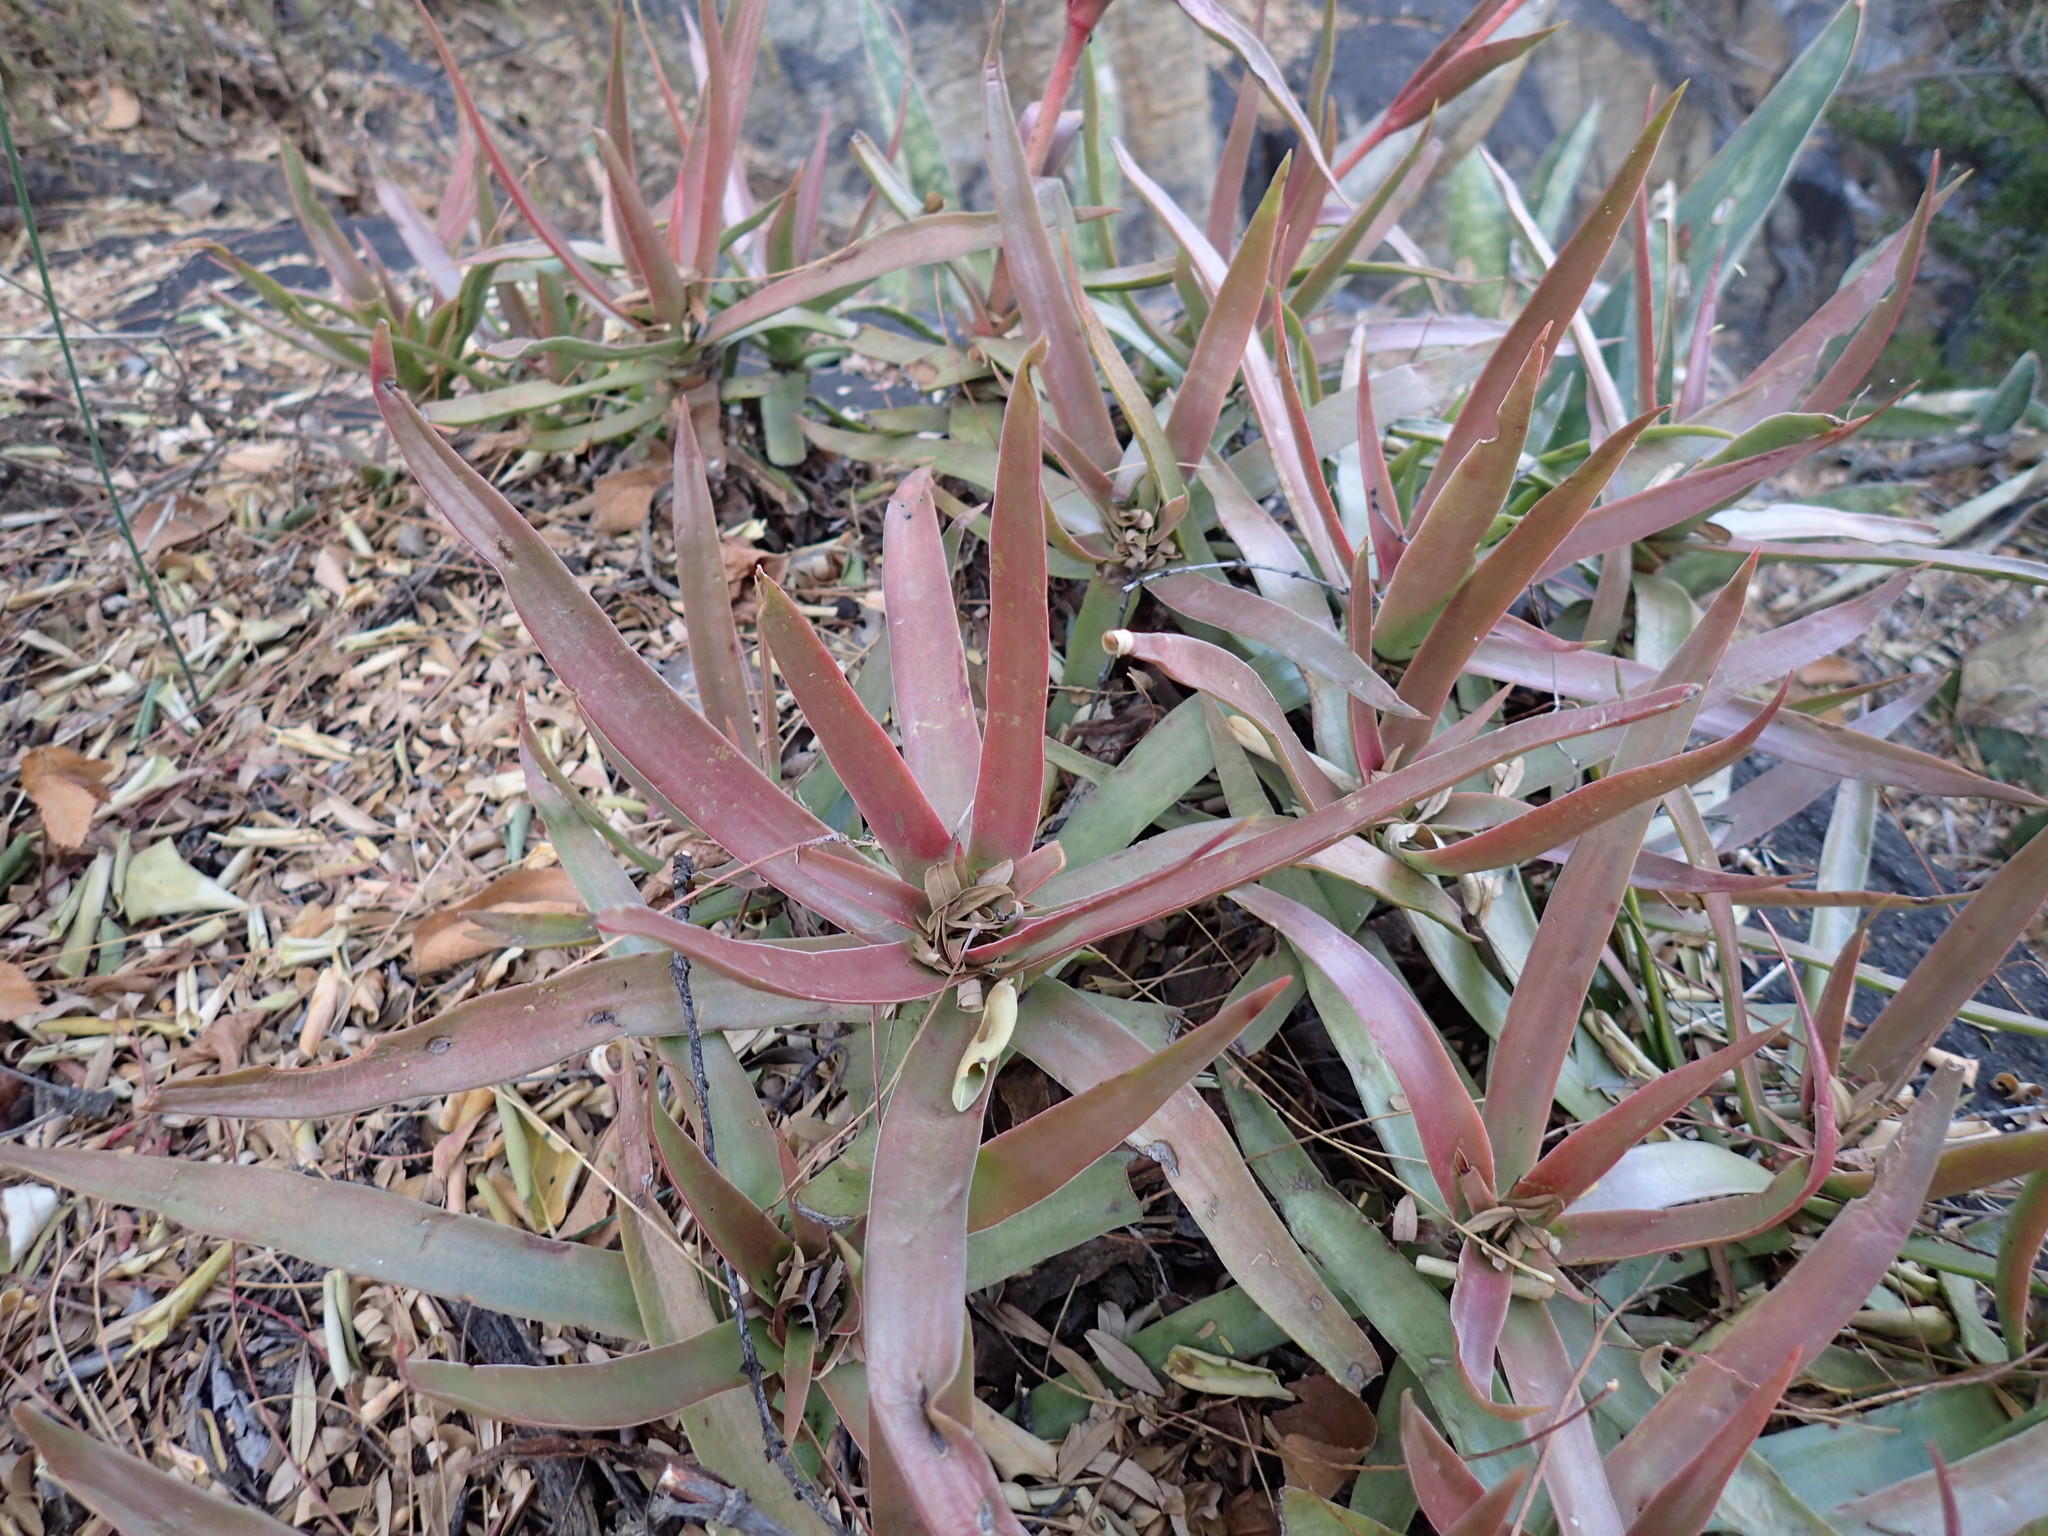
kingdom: Plantae
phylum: Tracheophyta
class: Magnoliopsida
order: Saxifragales
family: Crassulaceae
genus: Crassula
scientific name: Crassula alba
